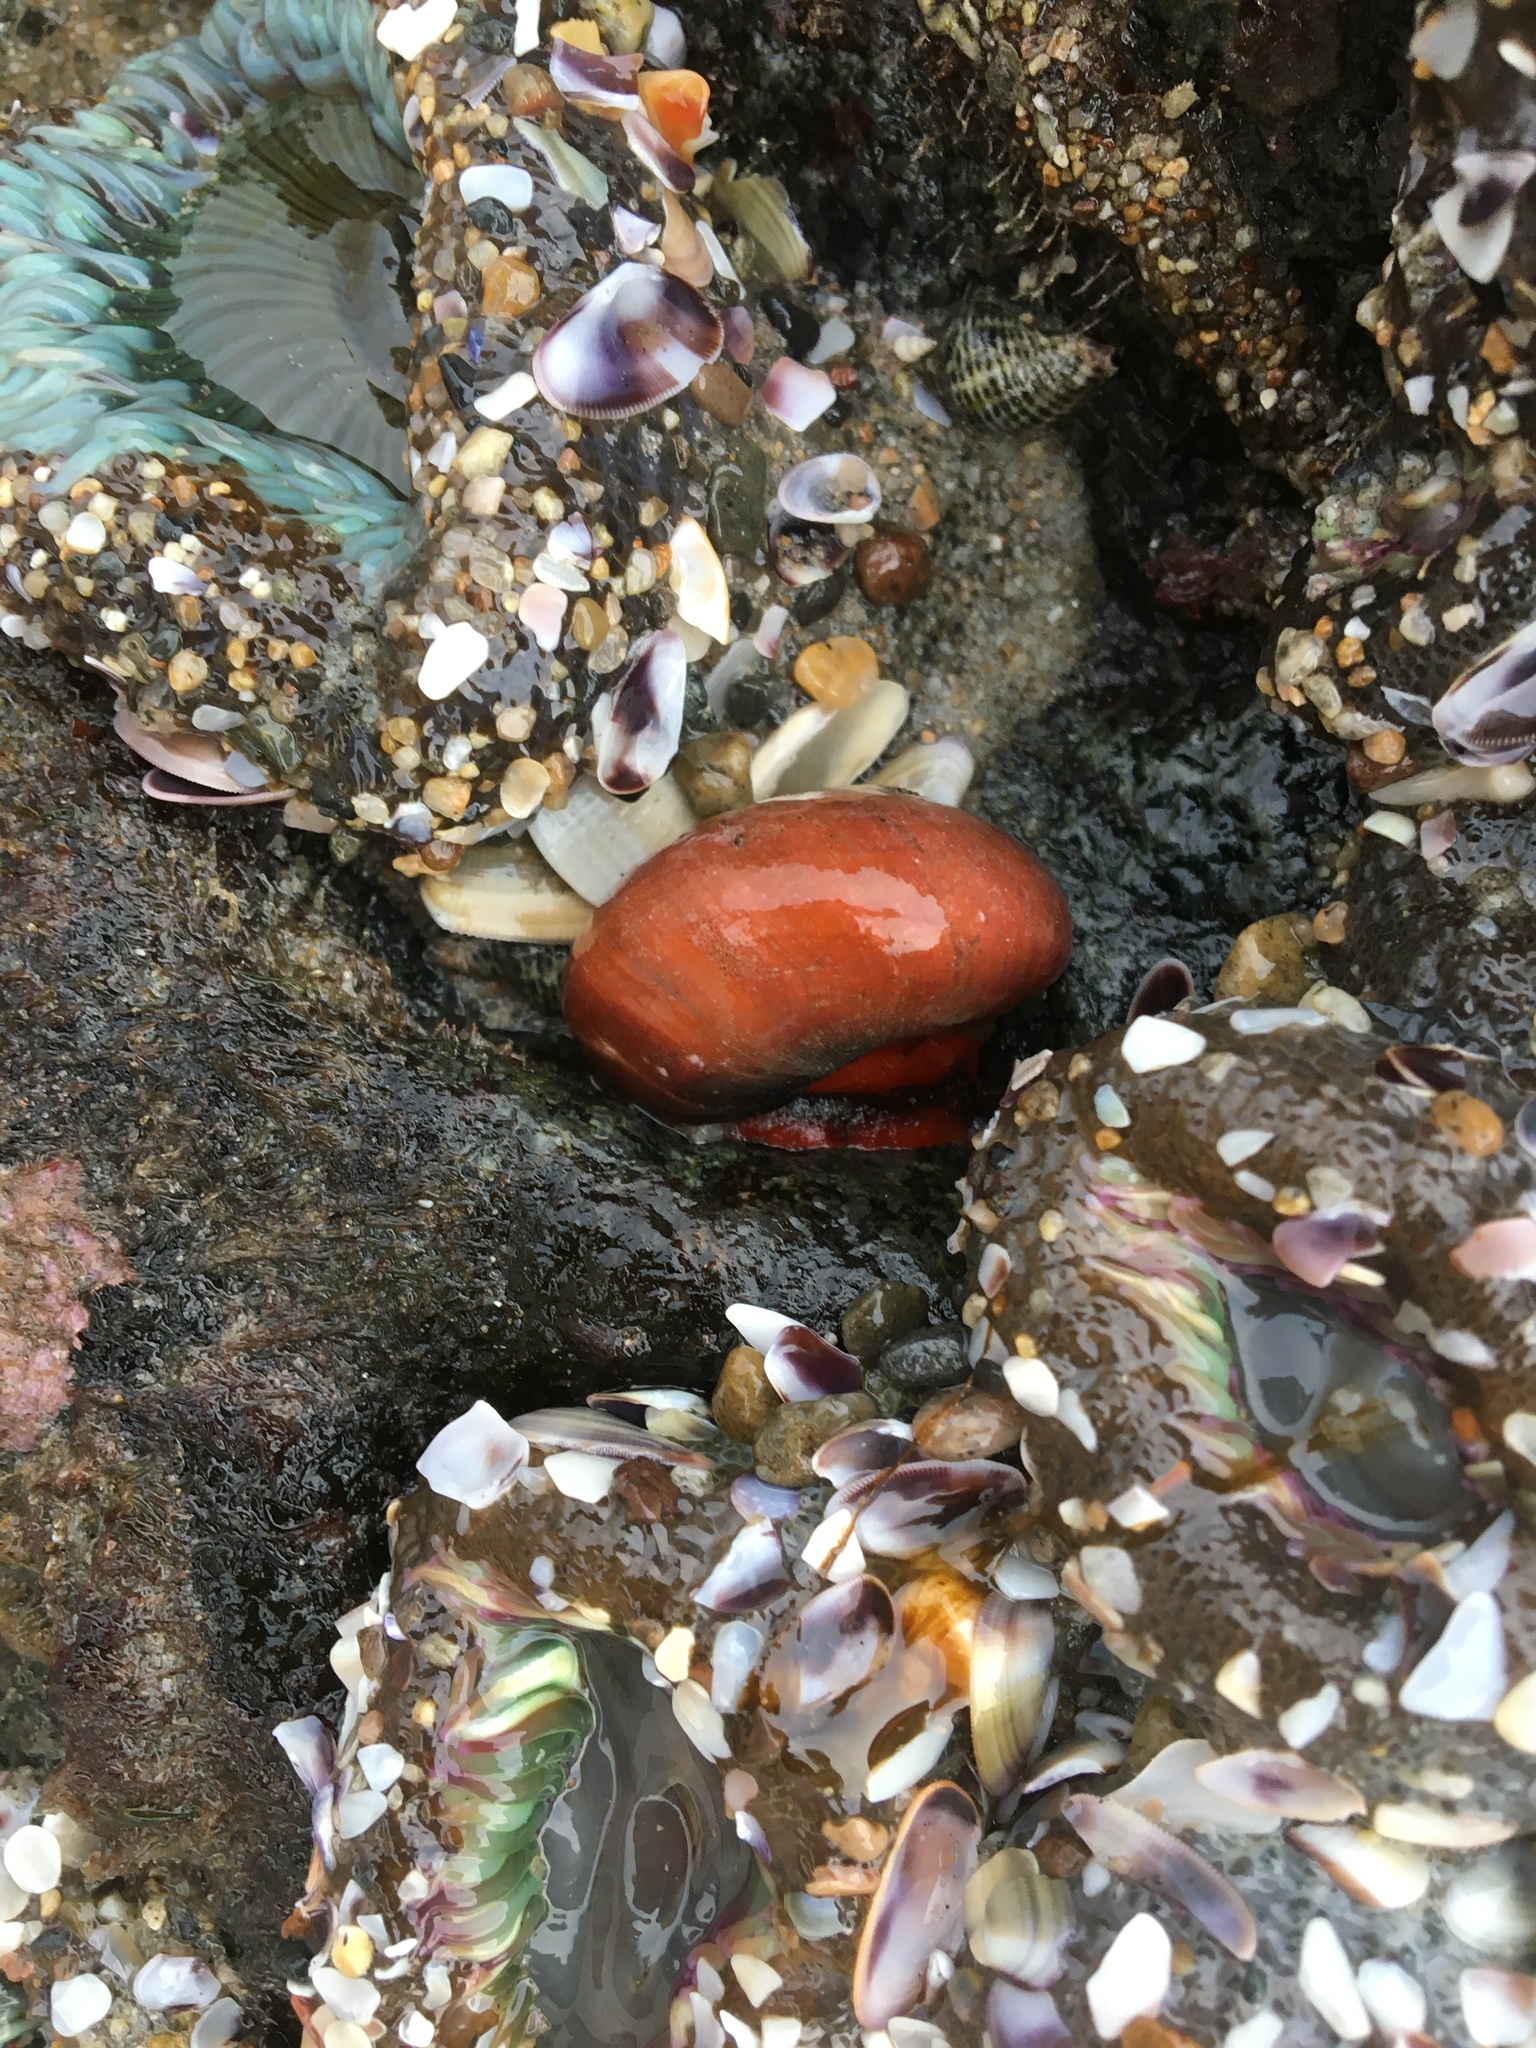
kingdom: Animalia
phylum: Mollusca
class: Gastropoda
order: Trochida
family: Tegulidae
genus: Norrisia
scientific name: Norrisia norrisii
